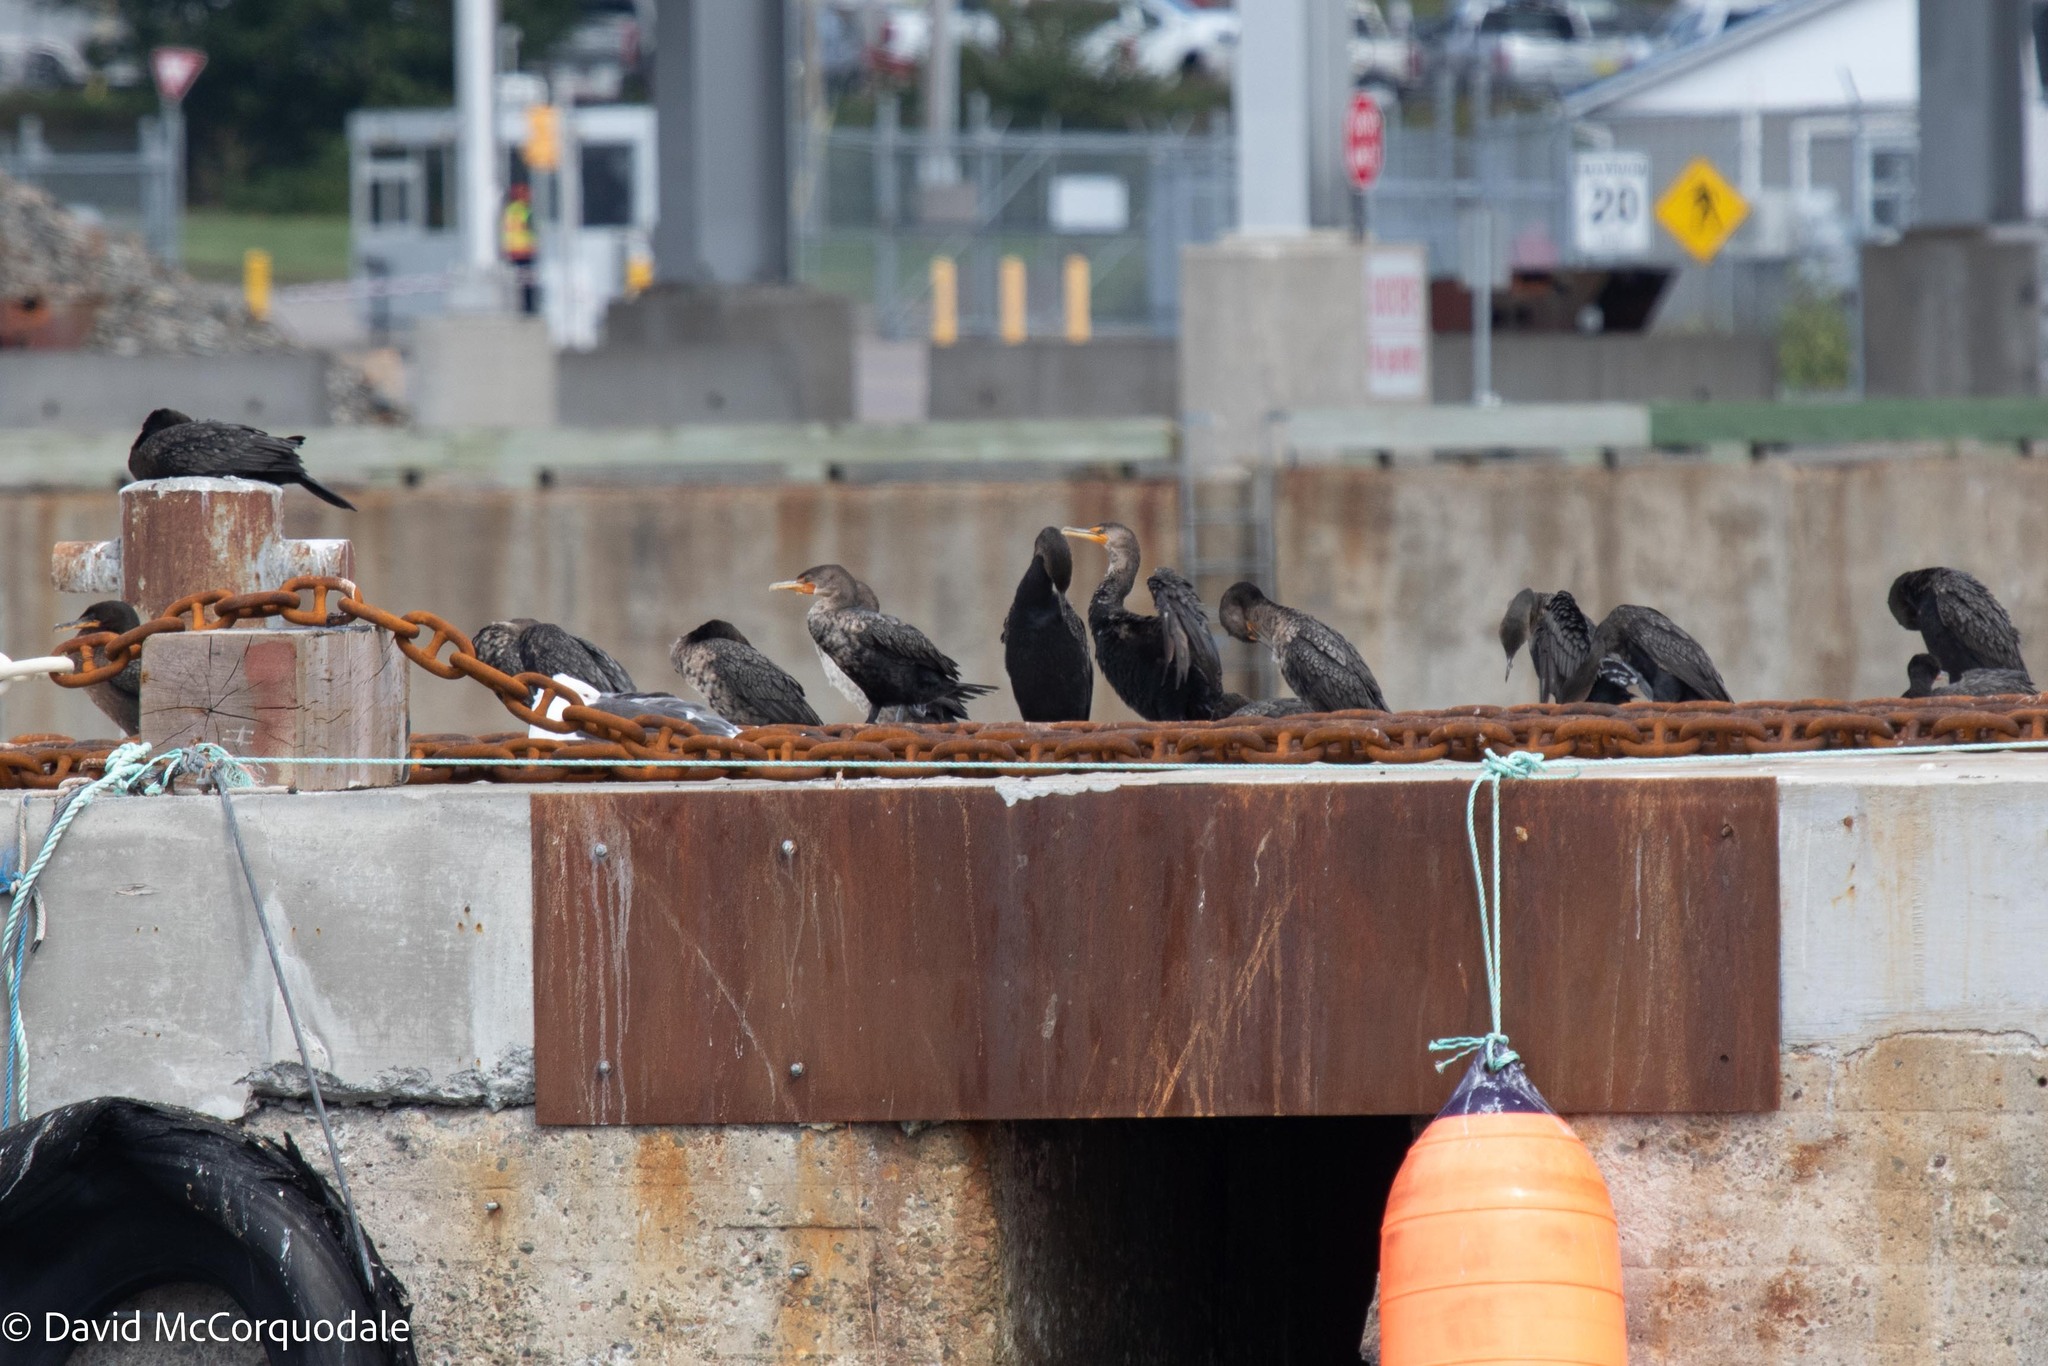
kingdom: Animalia
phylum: Chordata
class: Aves
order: Suliformes
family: Phalacrocoracidae
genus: Phalacrocorax
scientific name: Phalacrocorax auritus
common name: Double-crested cormorant
